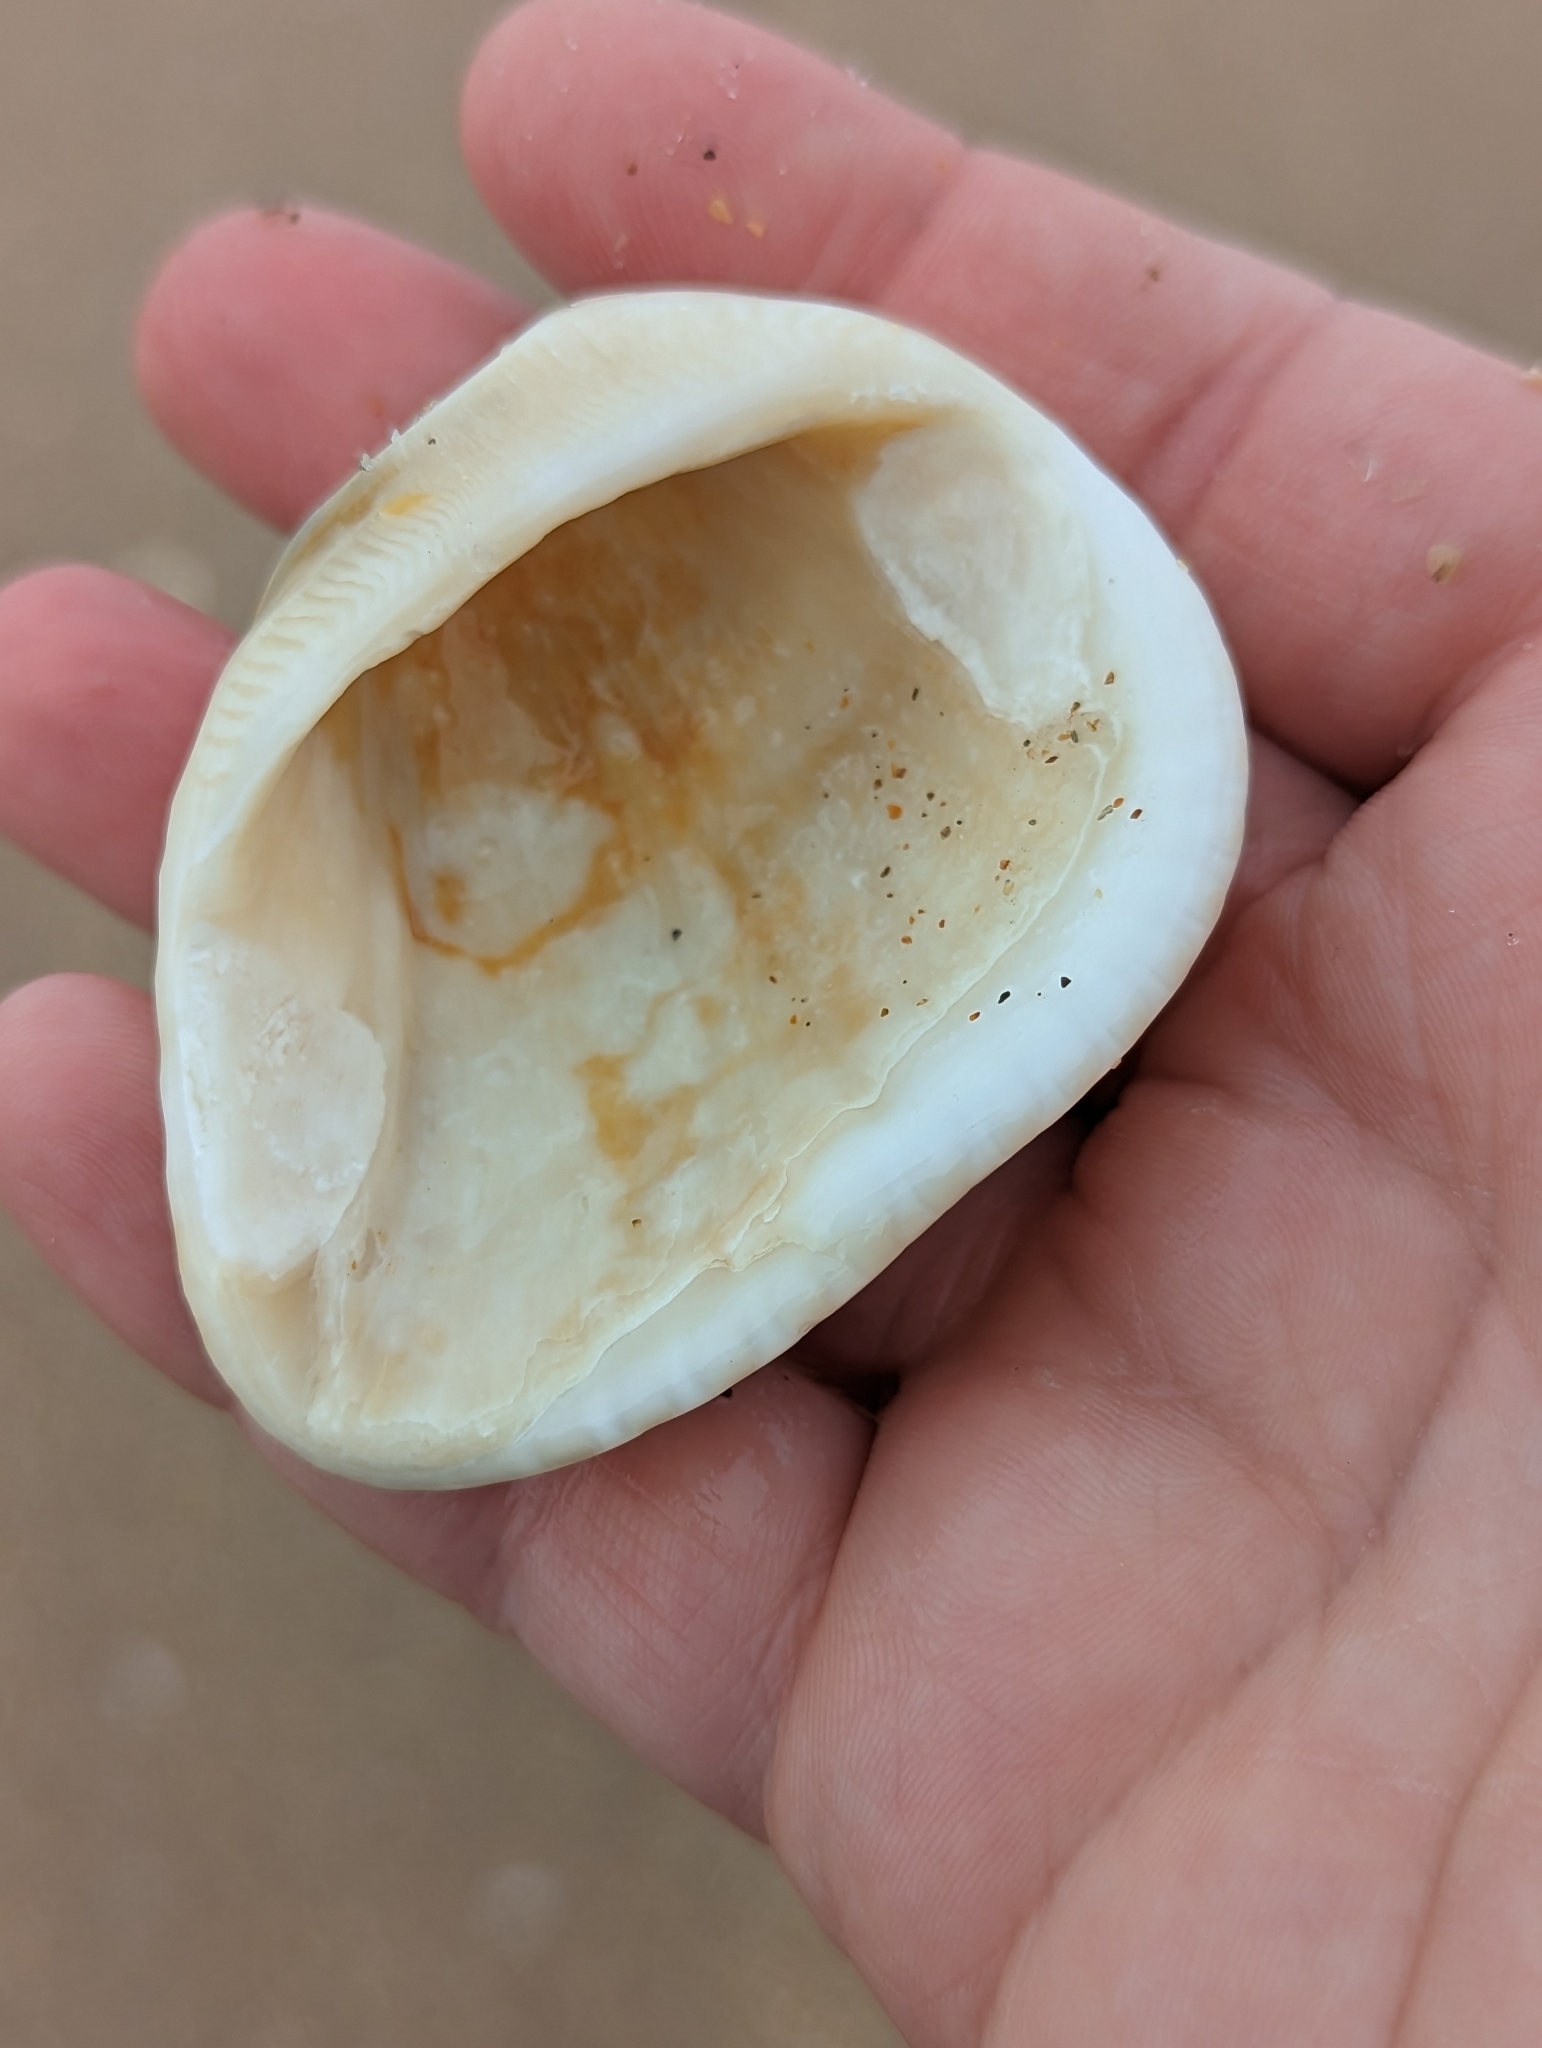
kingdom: Animalia
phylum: Mollusca
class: Bivalvia
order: Arcida
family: Noetiidae
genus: Noetia
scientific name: Noetia ponderosa
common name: Ponderous ark
